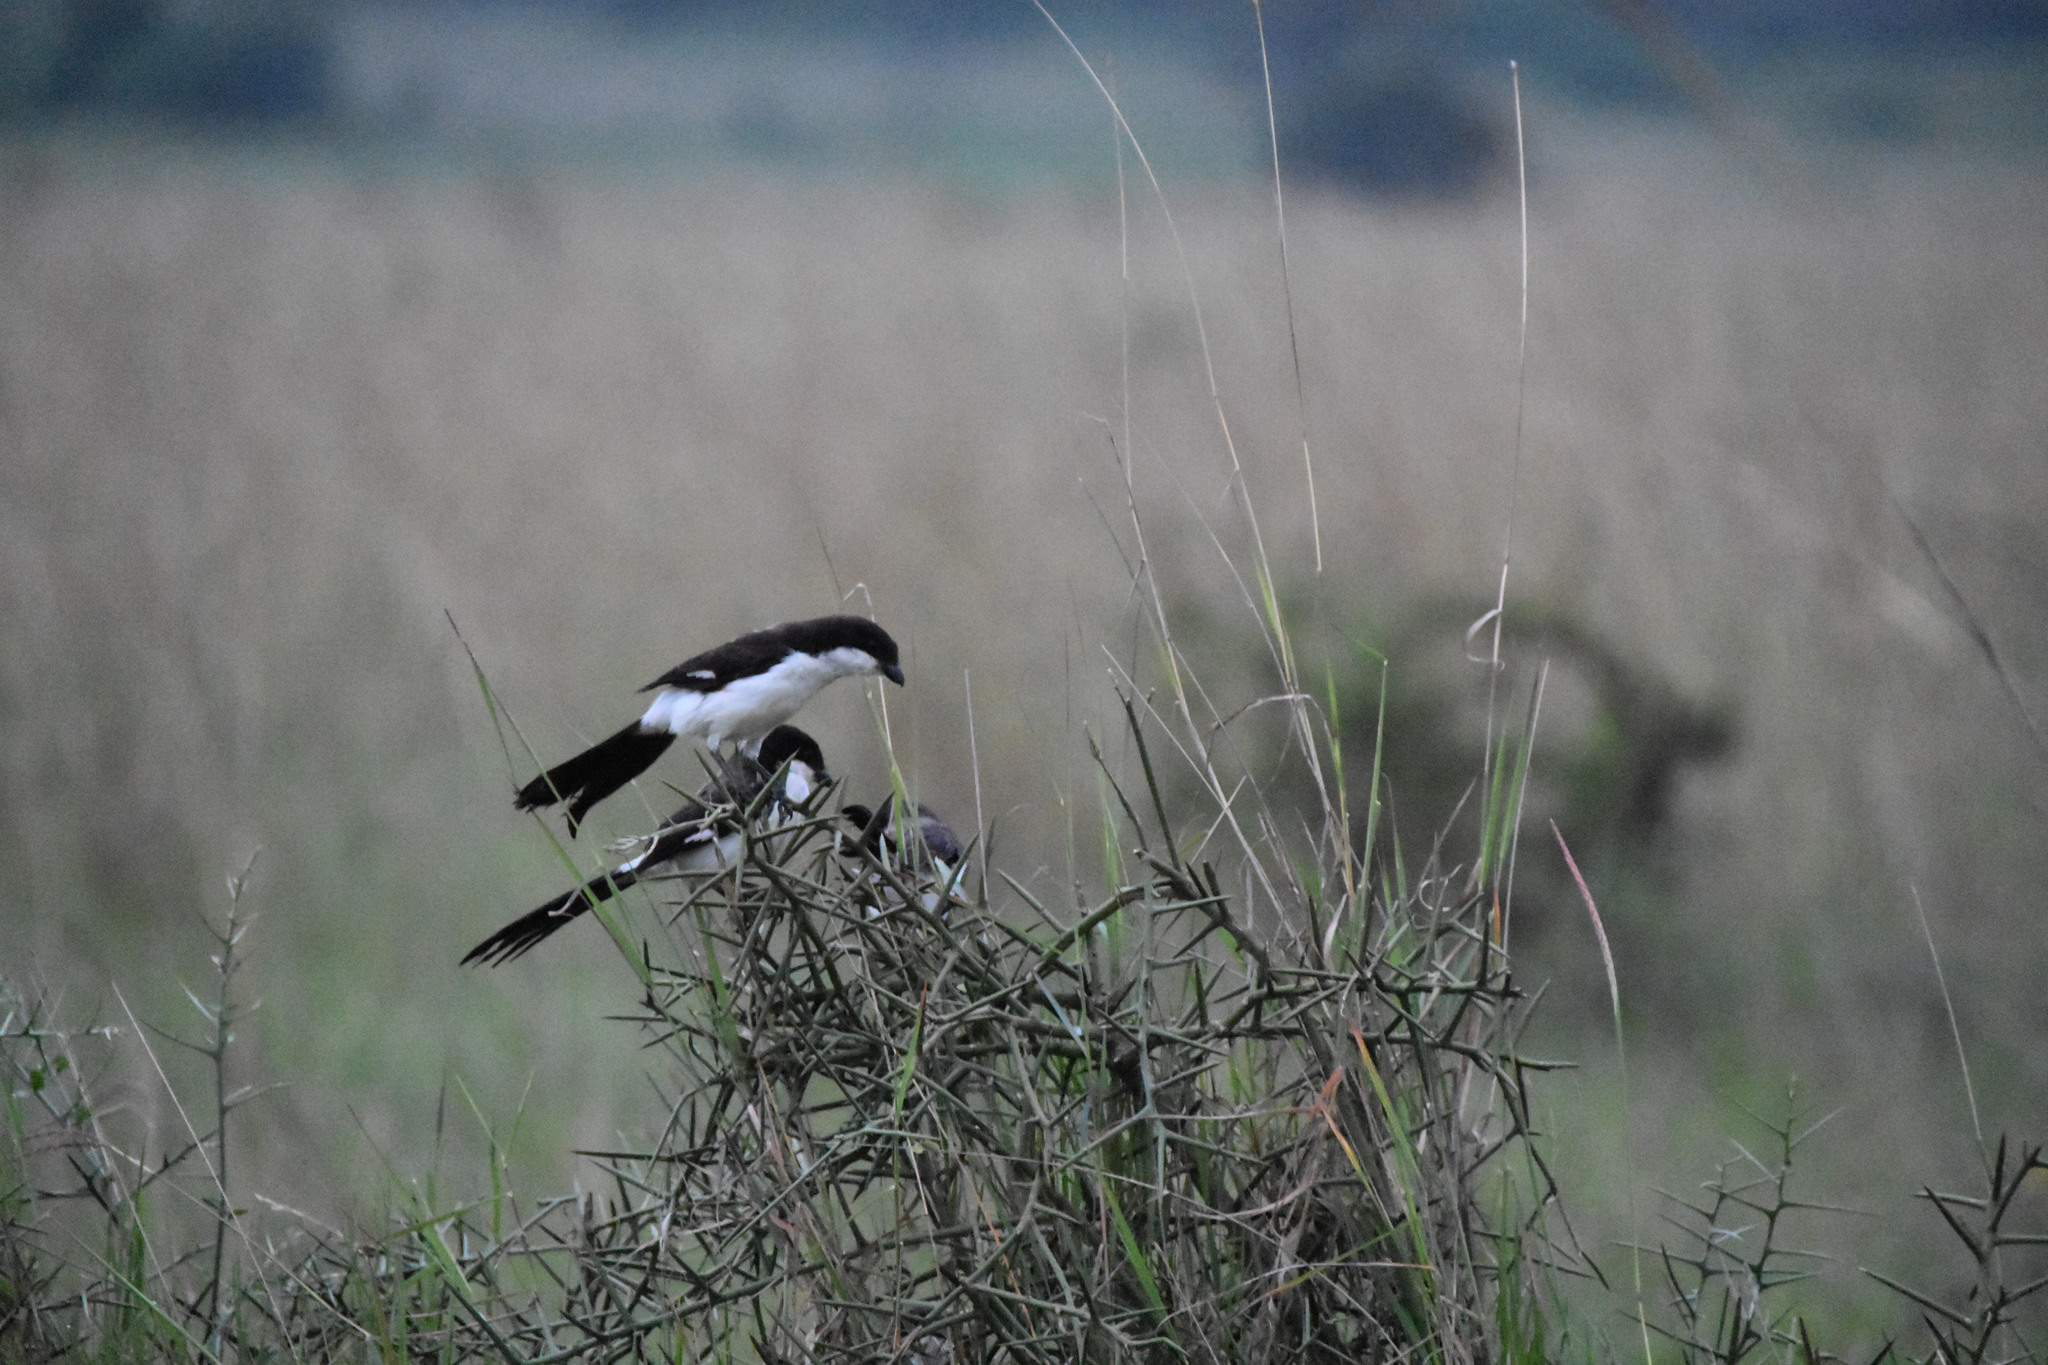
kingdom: Animalia
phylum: Chordata
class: Aves
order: Passeriformes
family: Laniidae
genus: Lanius
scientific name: Lanius cabanisi
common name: Long-tailed fiscal
